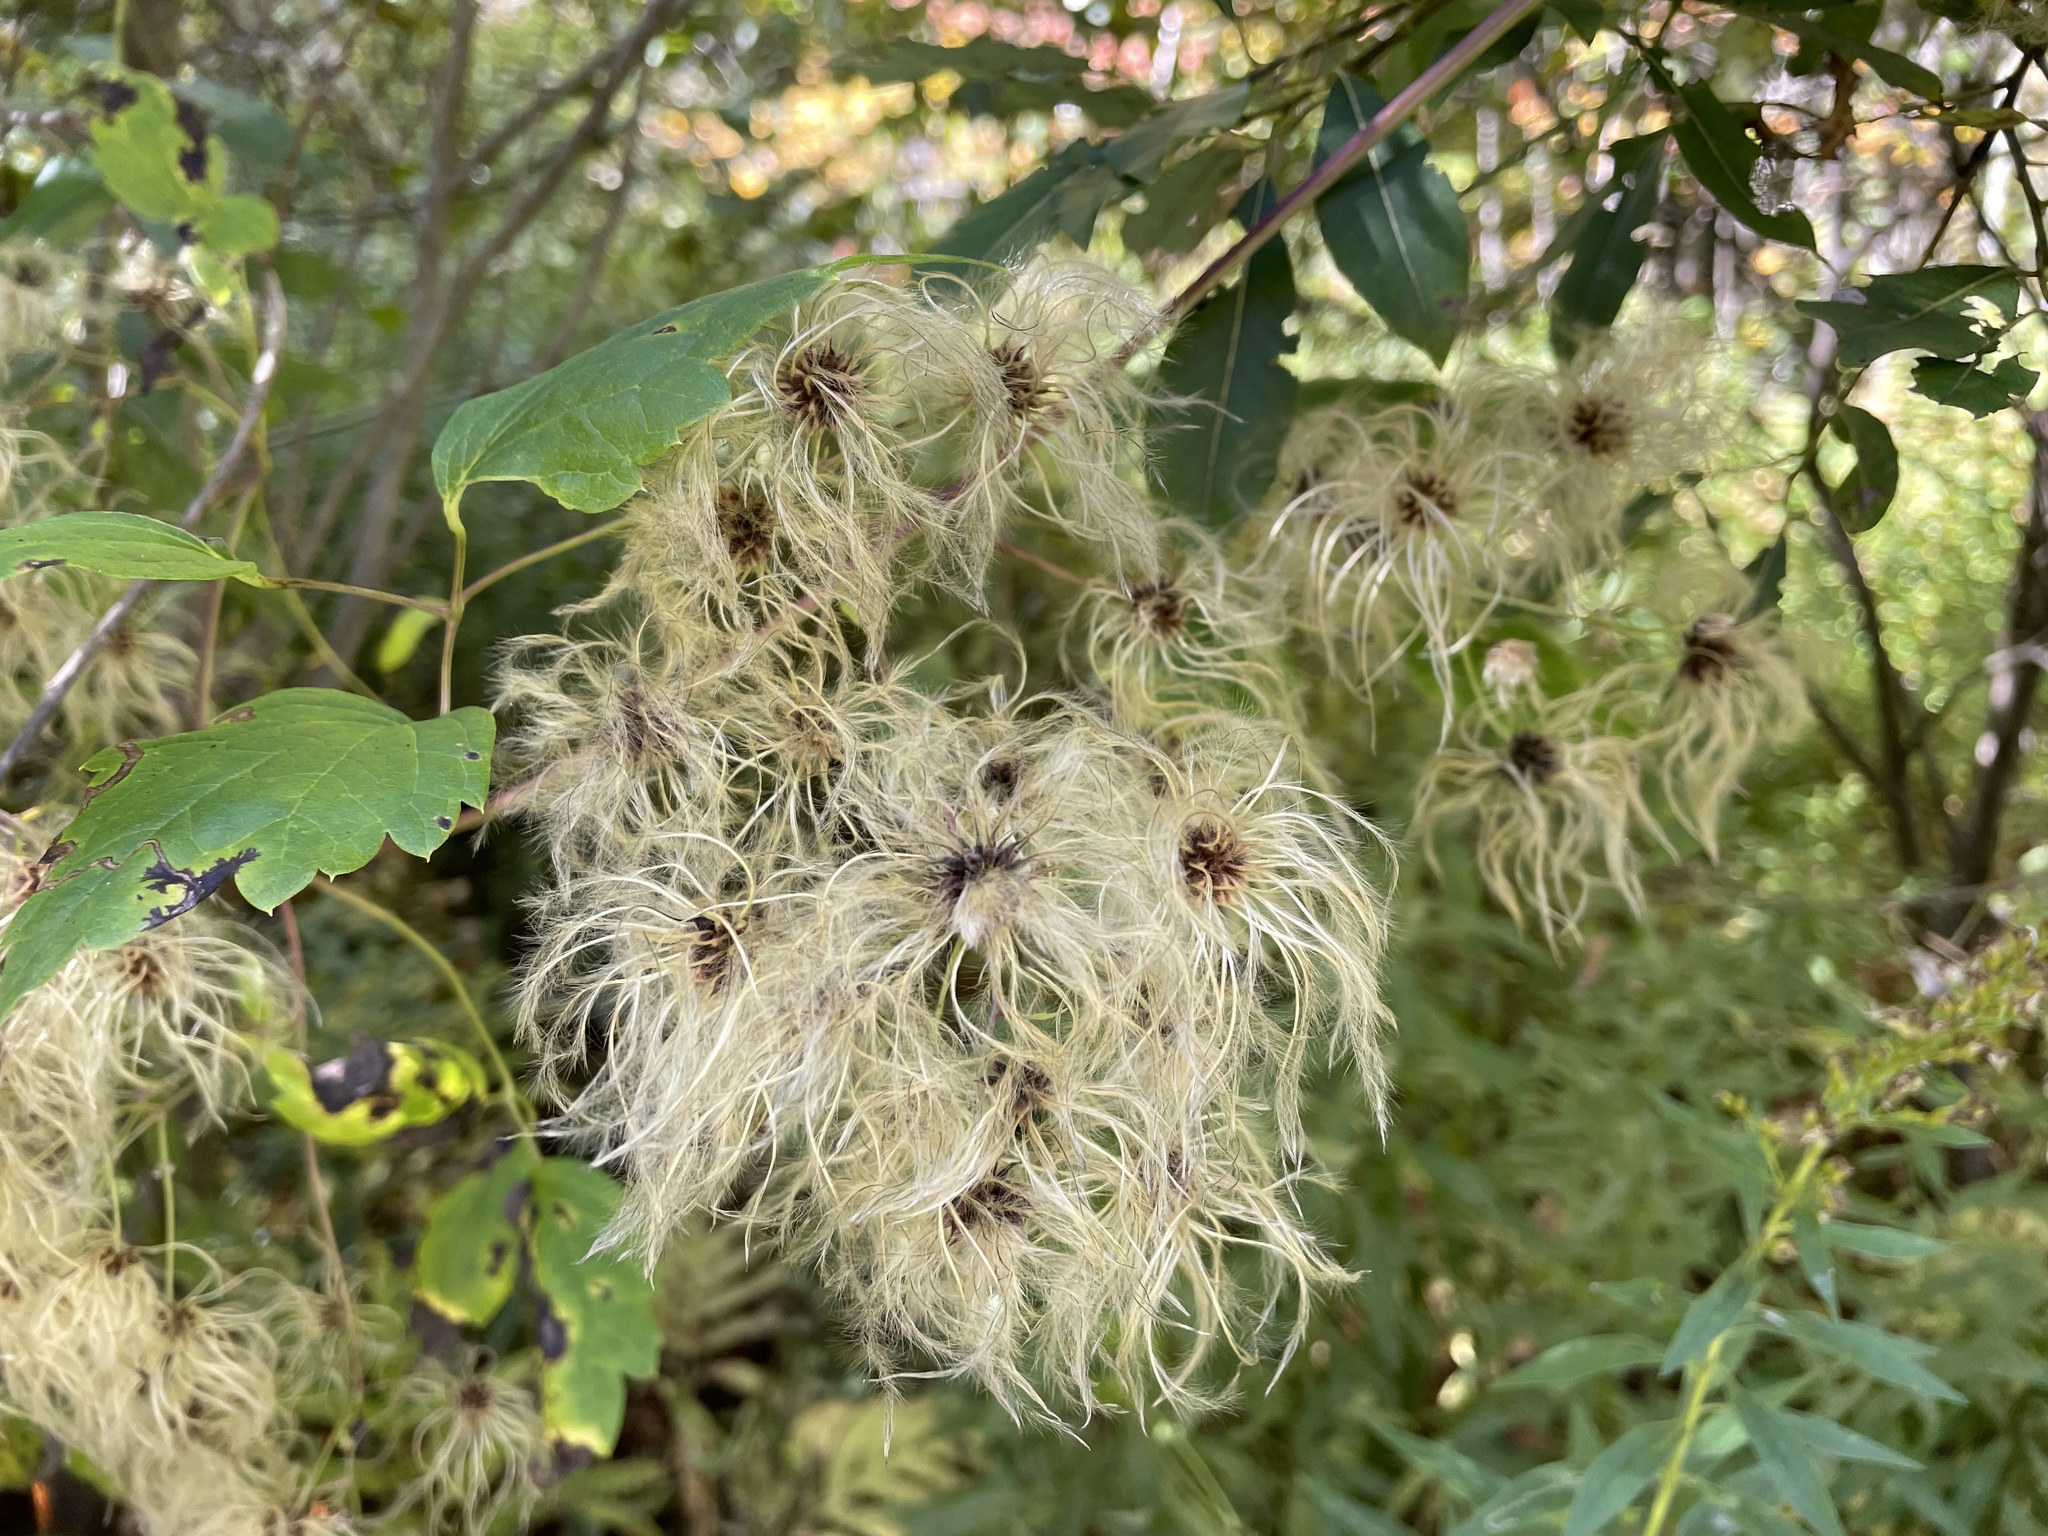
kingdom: Plantae
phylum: Tracheophyta
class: Magnoliopsida
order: Ranunculales
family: Ranunculaceae
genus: Clematis
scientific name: Clematis virginiana
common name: Virgin's-bower
